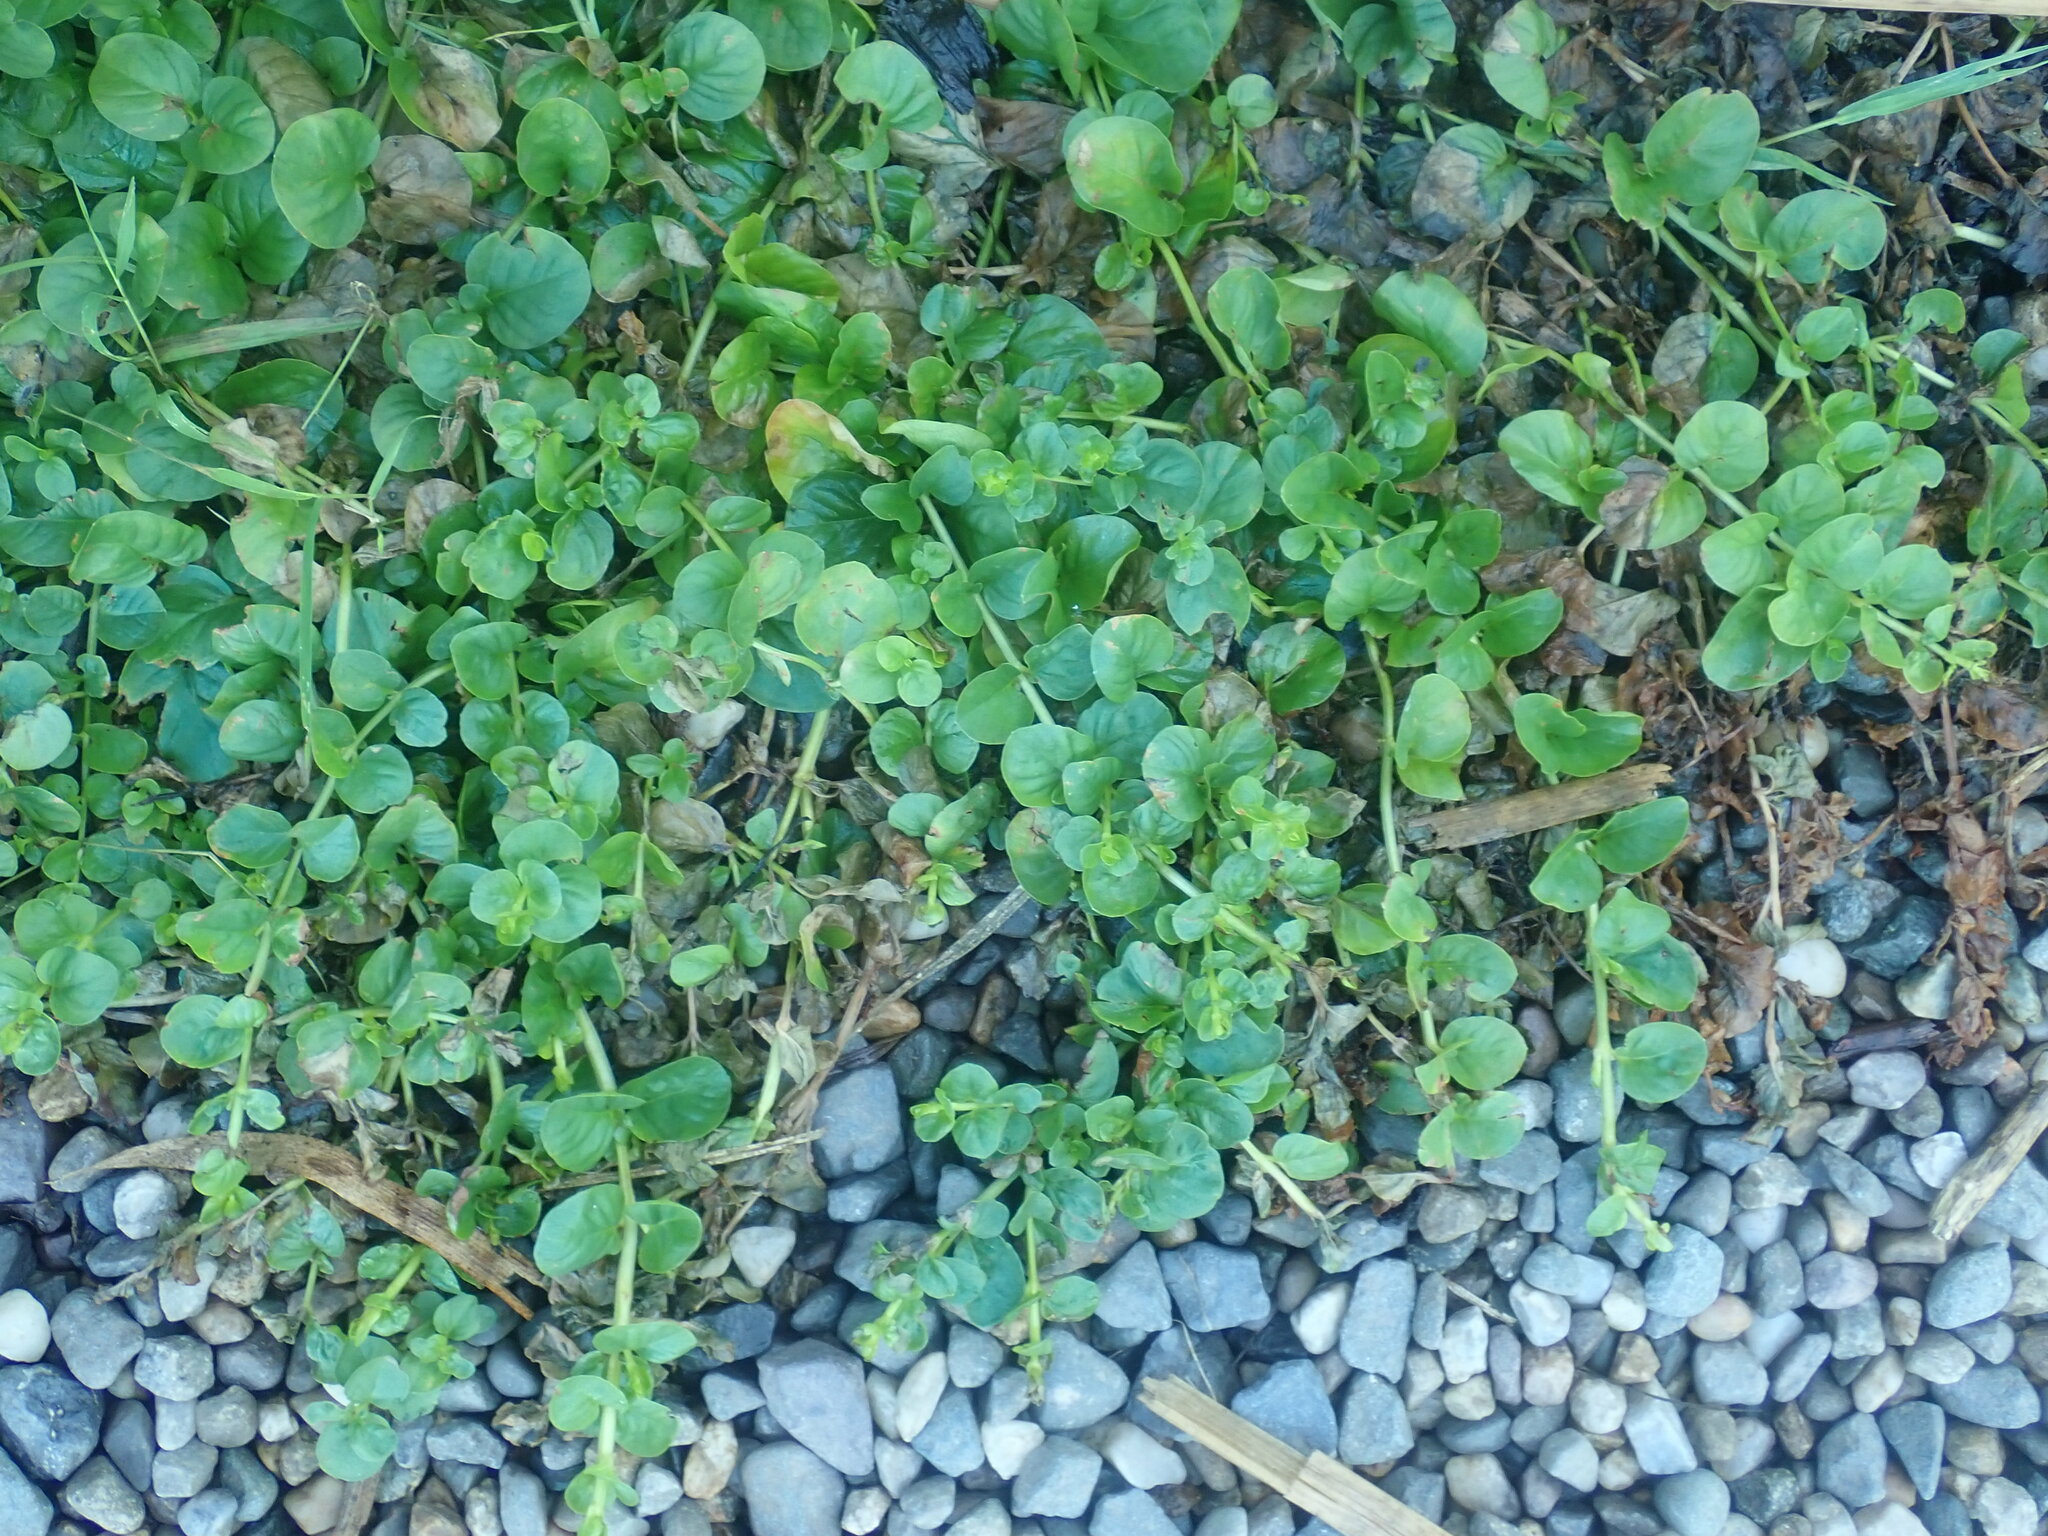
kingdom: Plantae
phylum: Tracheophyta
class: Magnoliopsida
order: Ericales
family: Primulaceae
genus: Lysimachia
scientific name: Lysimachia nummularia
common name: Moneywort
